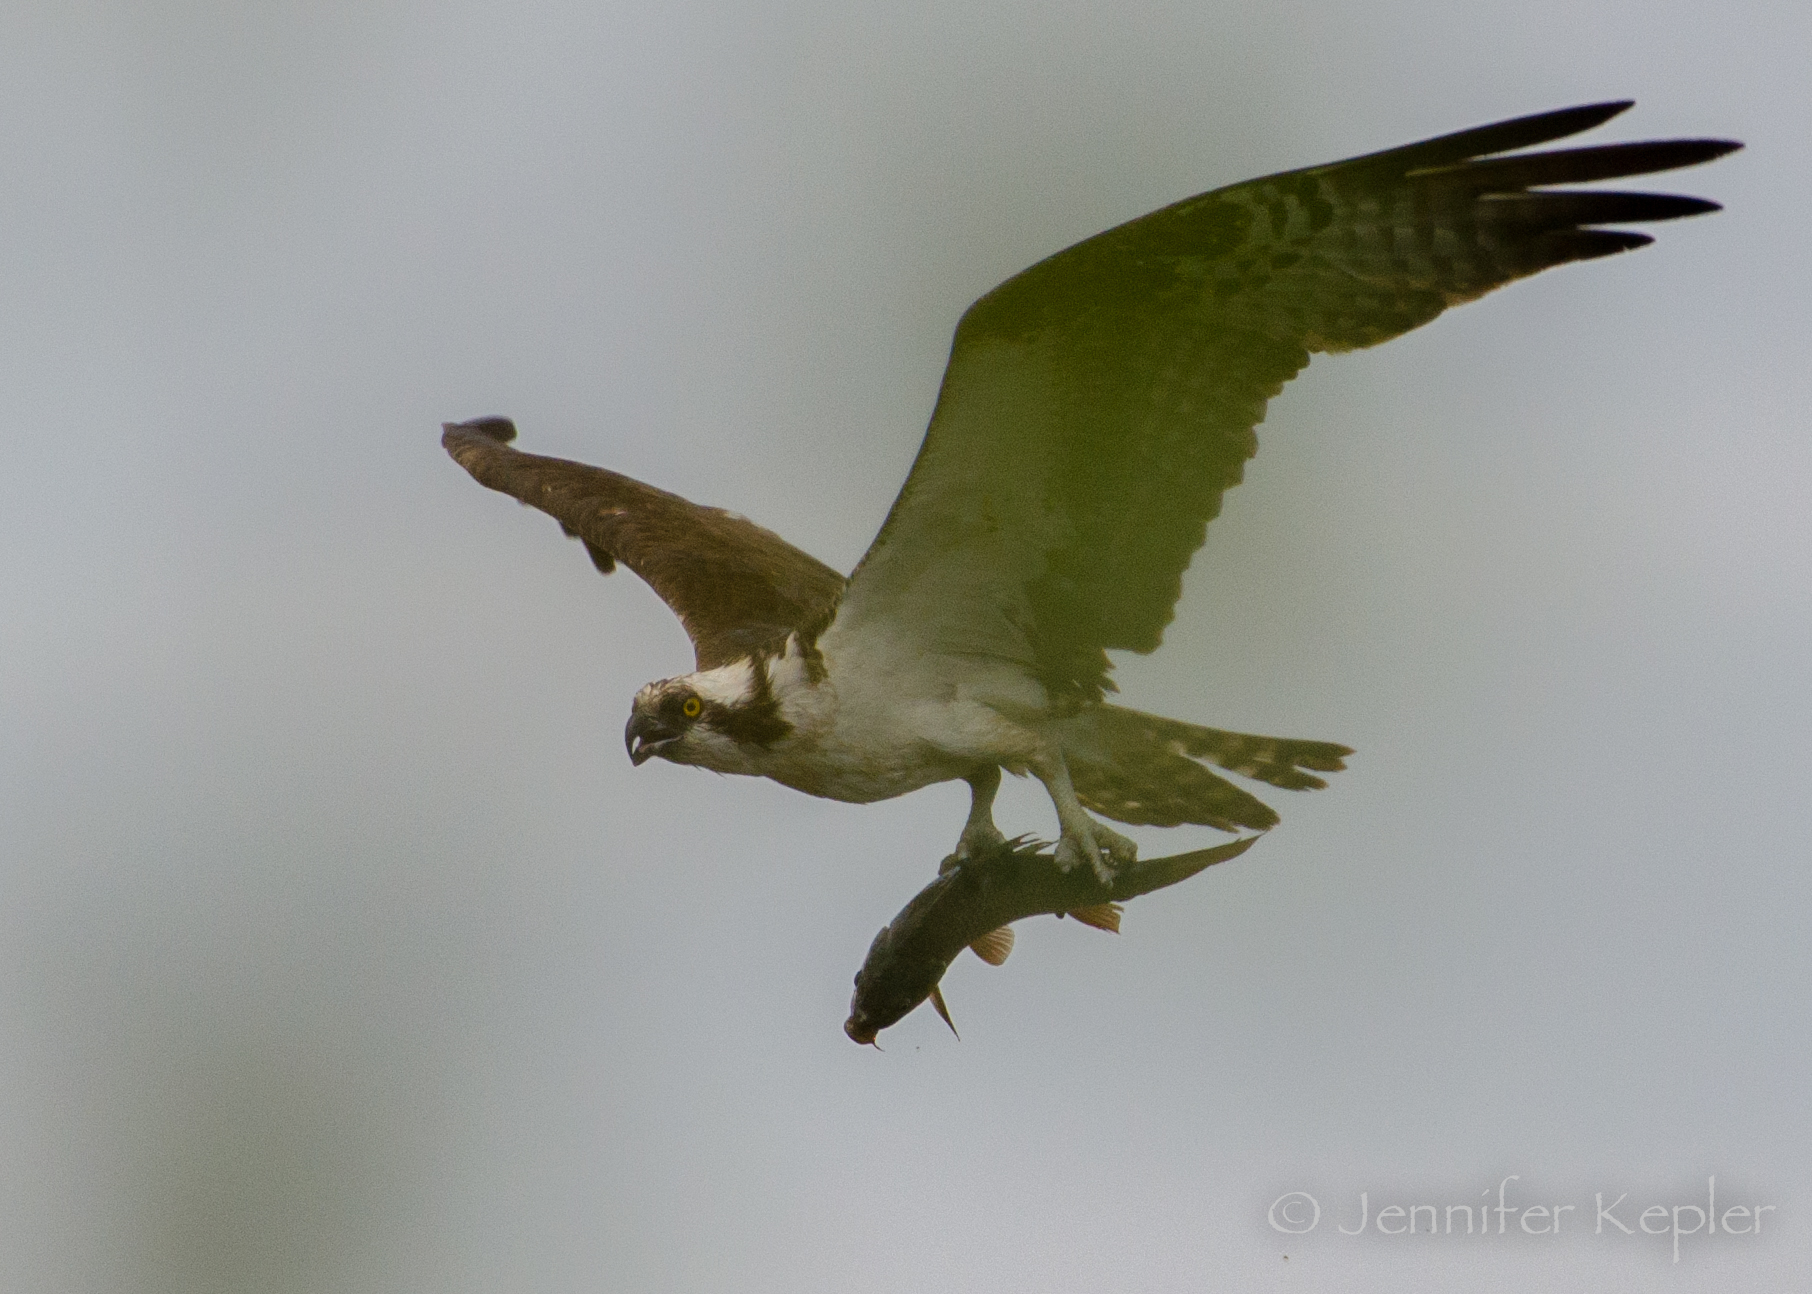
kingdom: Animalia
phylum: Chordata
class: Aves
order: Accipitriformes
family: Pandionidae
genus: Pandion
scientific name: Pandion haliaetus
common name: Osprey
